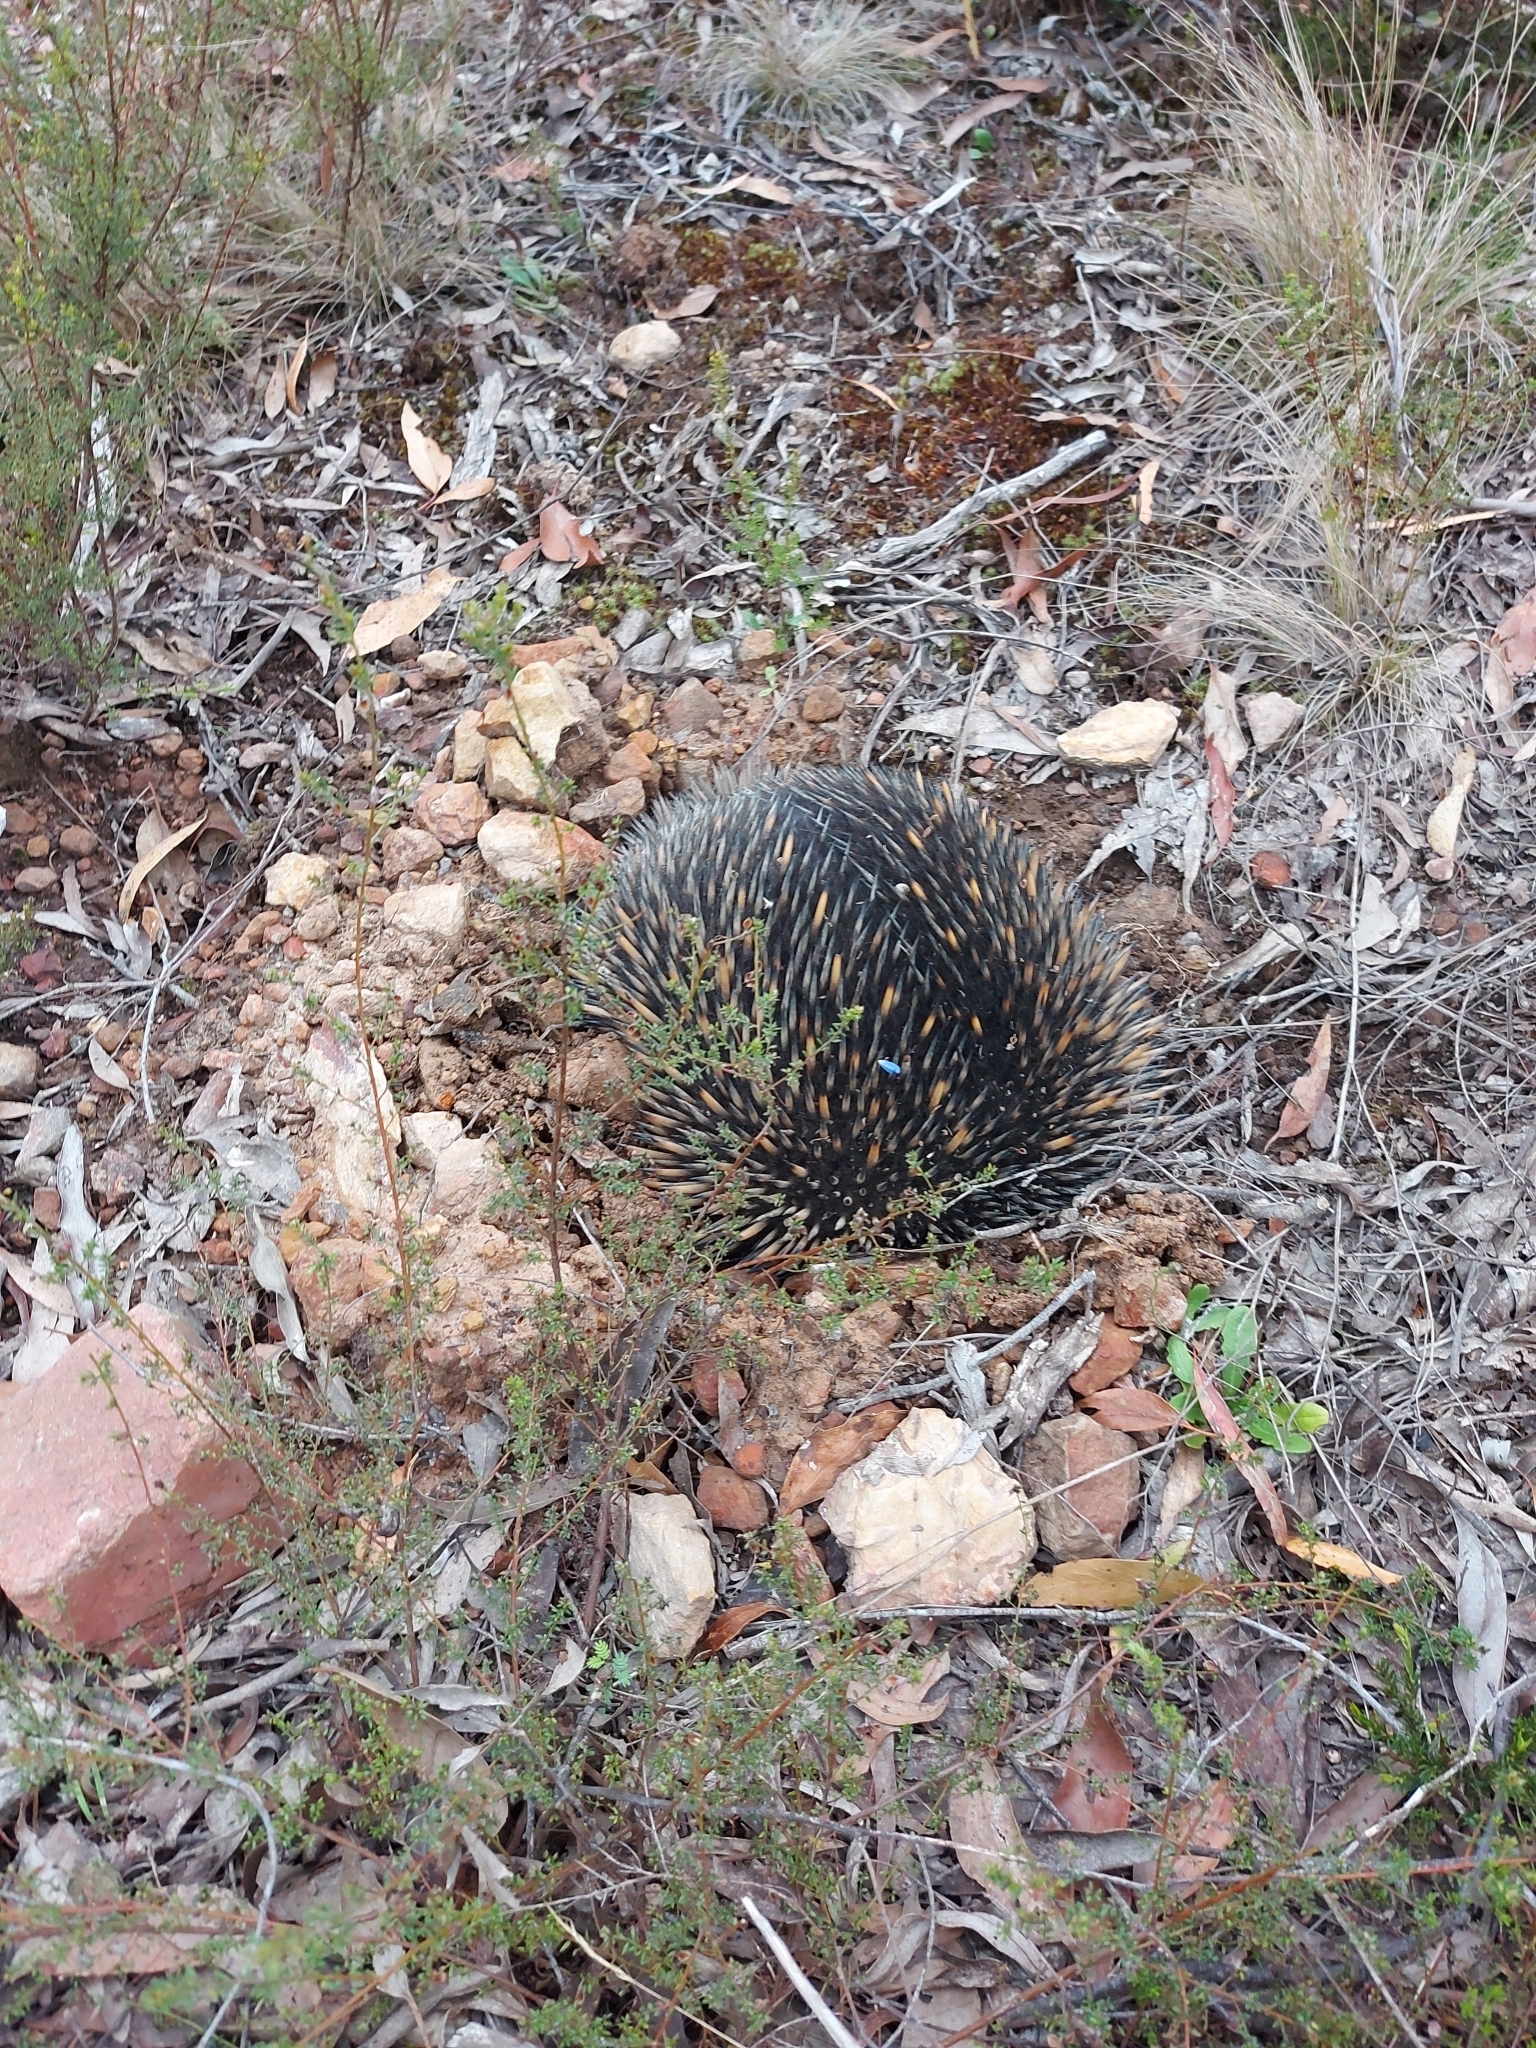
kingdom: Animalia
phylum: Chordata
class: Mammalia
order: Monotremata
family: Tachyglossidae
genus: Tachyglossus
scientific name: Tachyglossus aculeatus
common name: Short-beaked echidna
